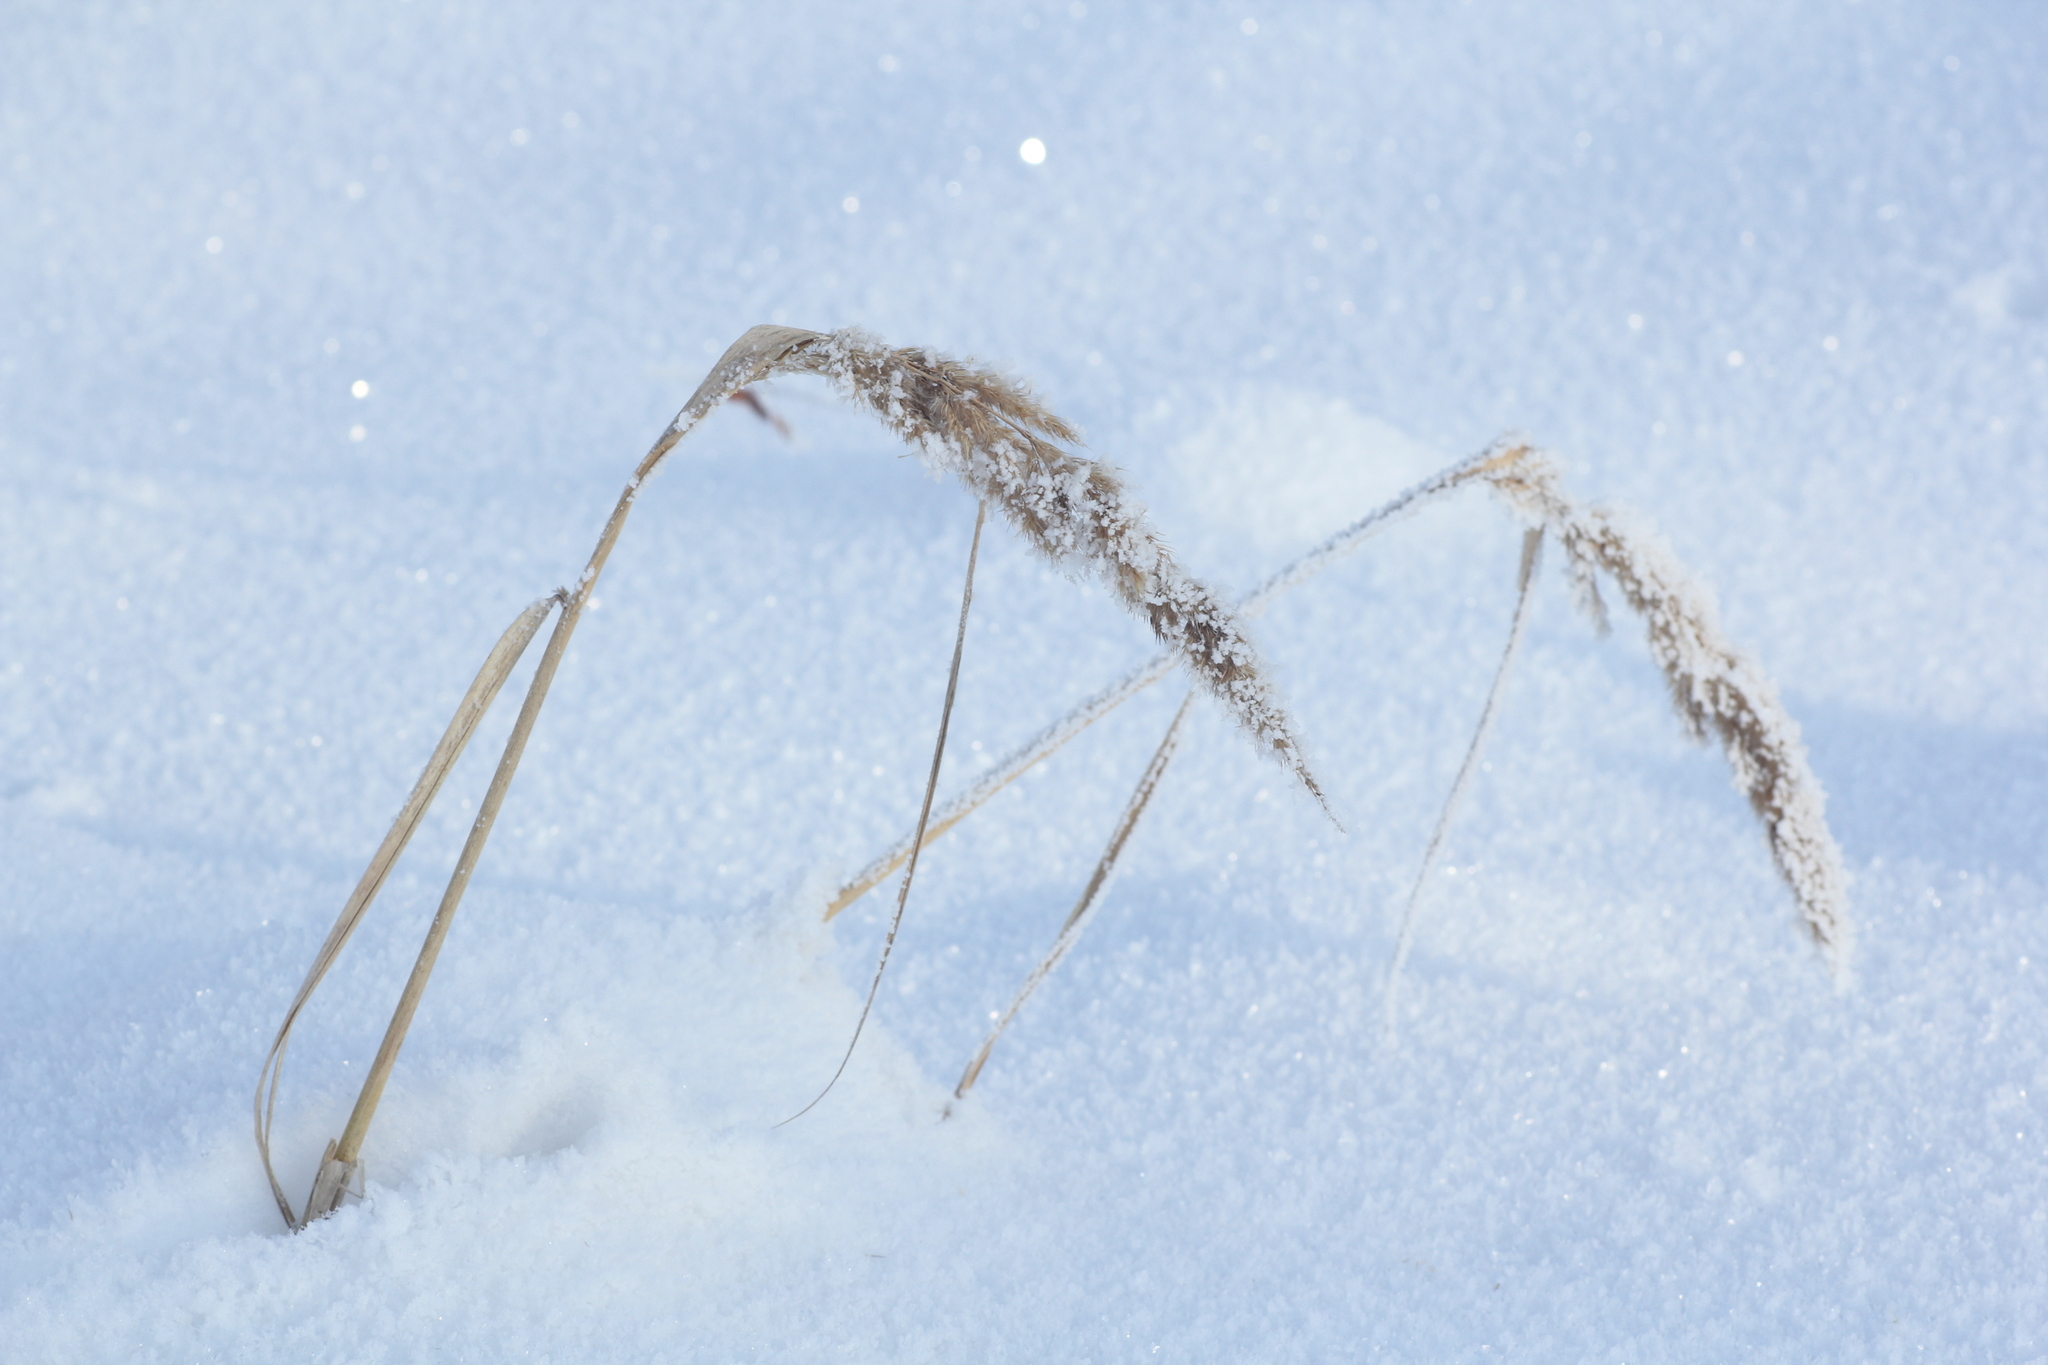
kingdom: Plantae
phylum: Tracheophyta
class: Liliopsida
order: Poales
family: Poaceae
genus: Calamagrostis
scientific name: Calamagrostis epigejos
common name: Wood small-reed
